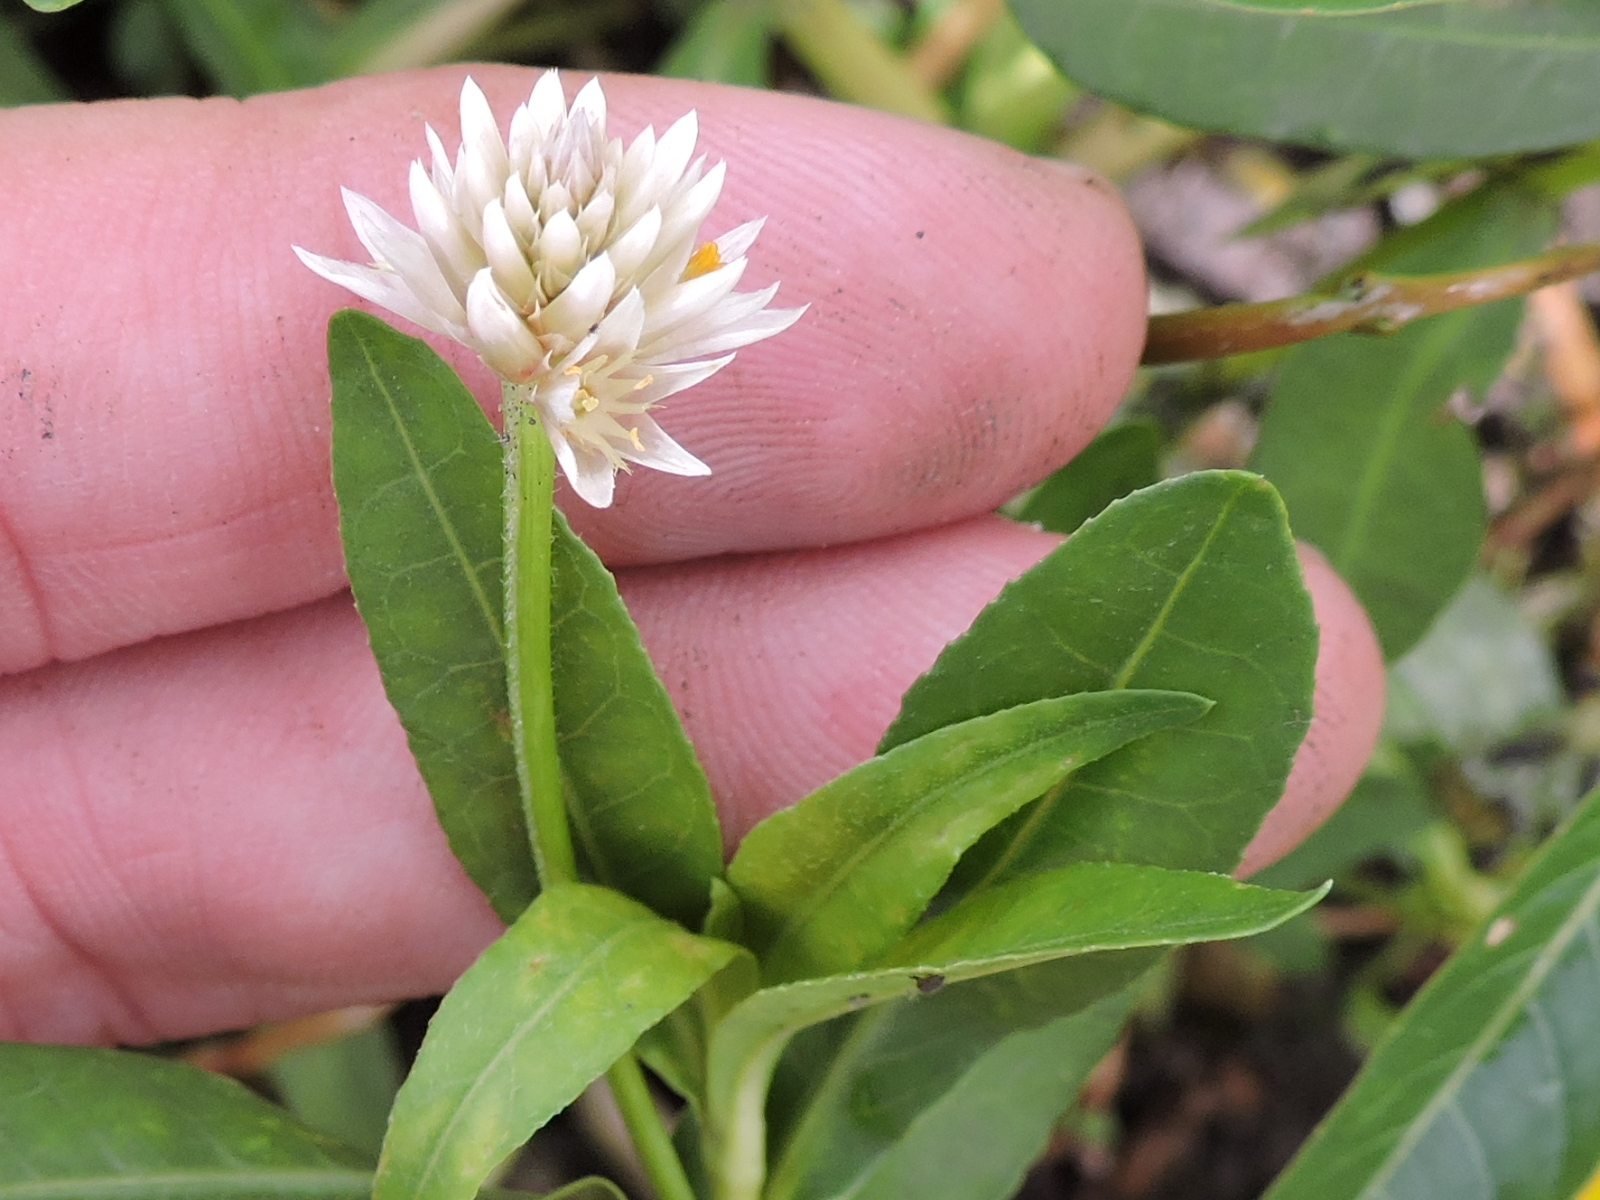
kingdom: Plantae
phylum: Tracheophyta
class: Magnoliopsida
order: Caryophyllales
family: Amaranthaceae
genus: Alternanthera
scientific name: Alternanthera philoxeroides
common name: Alligatorweed
